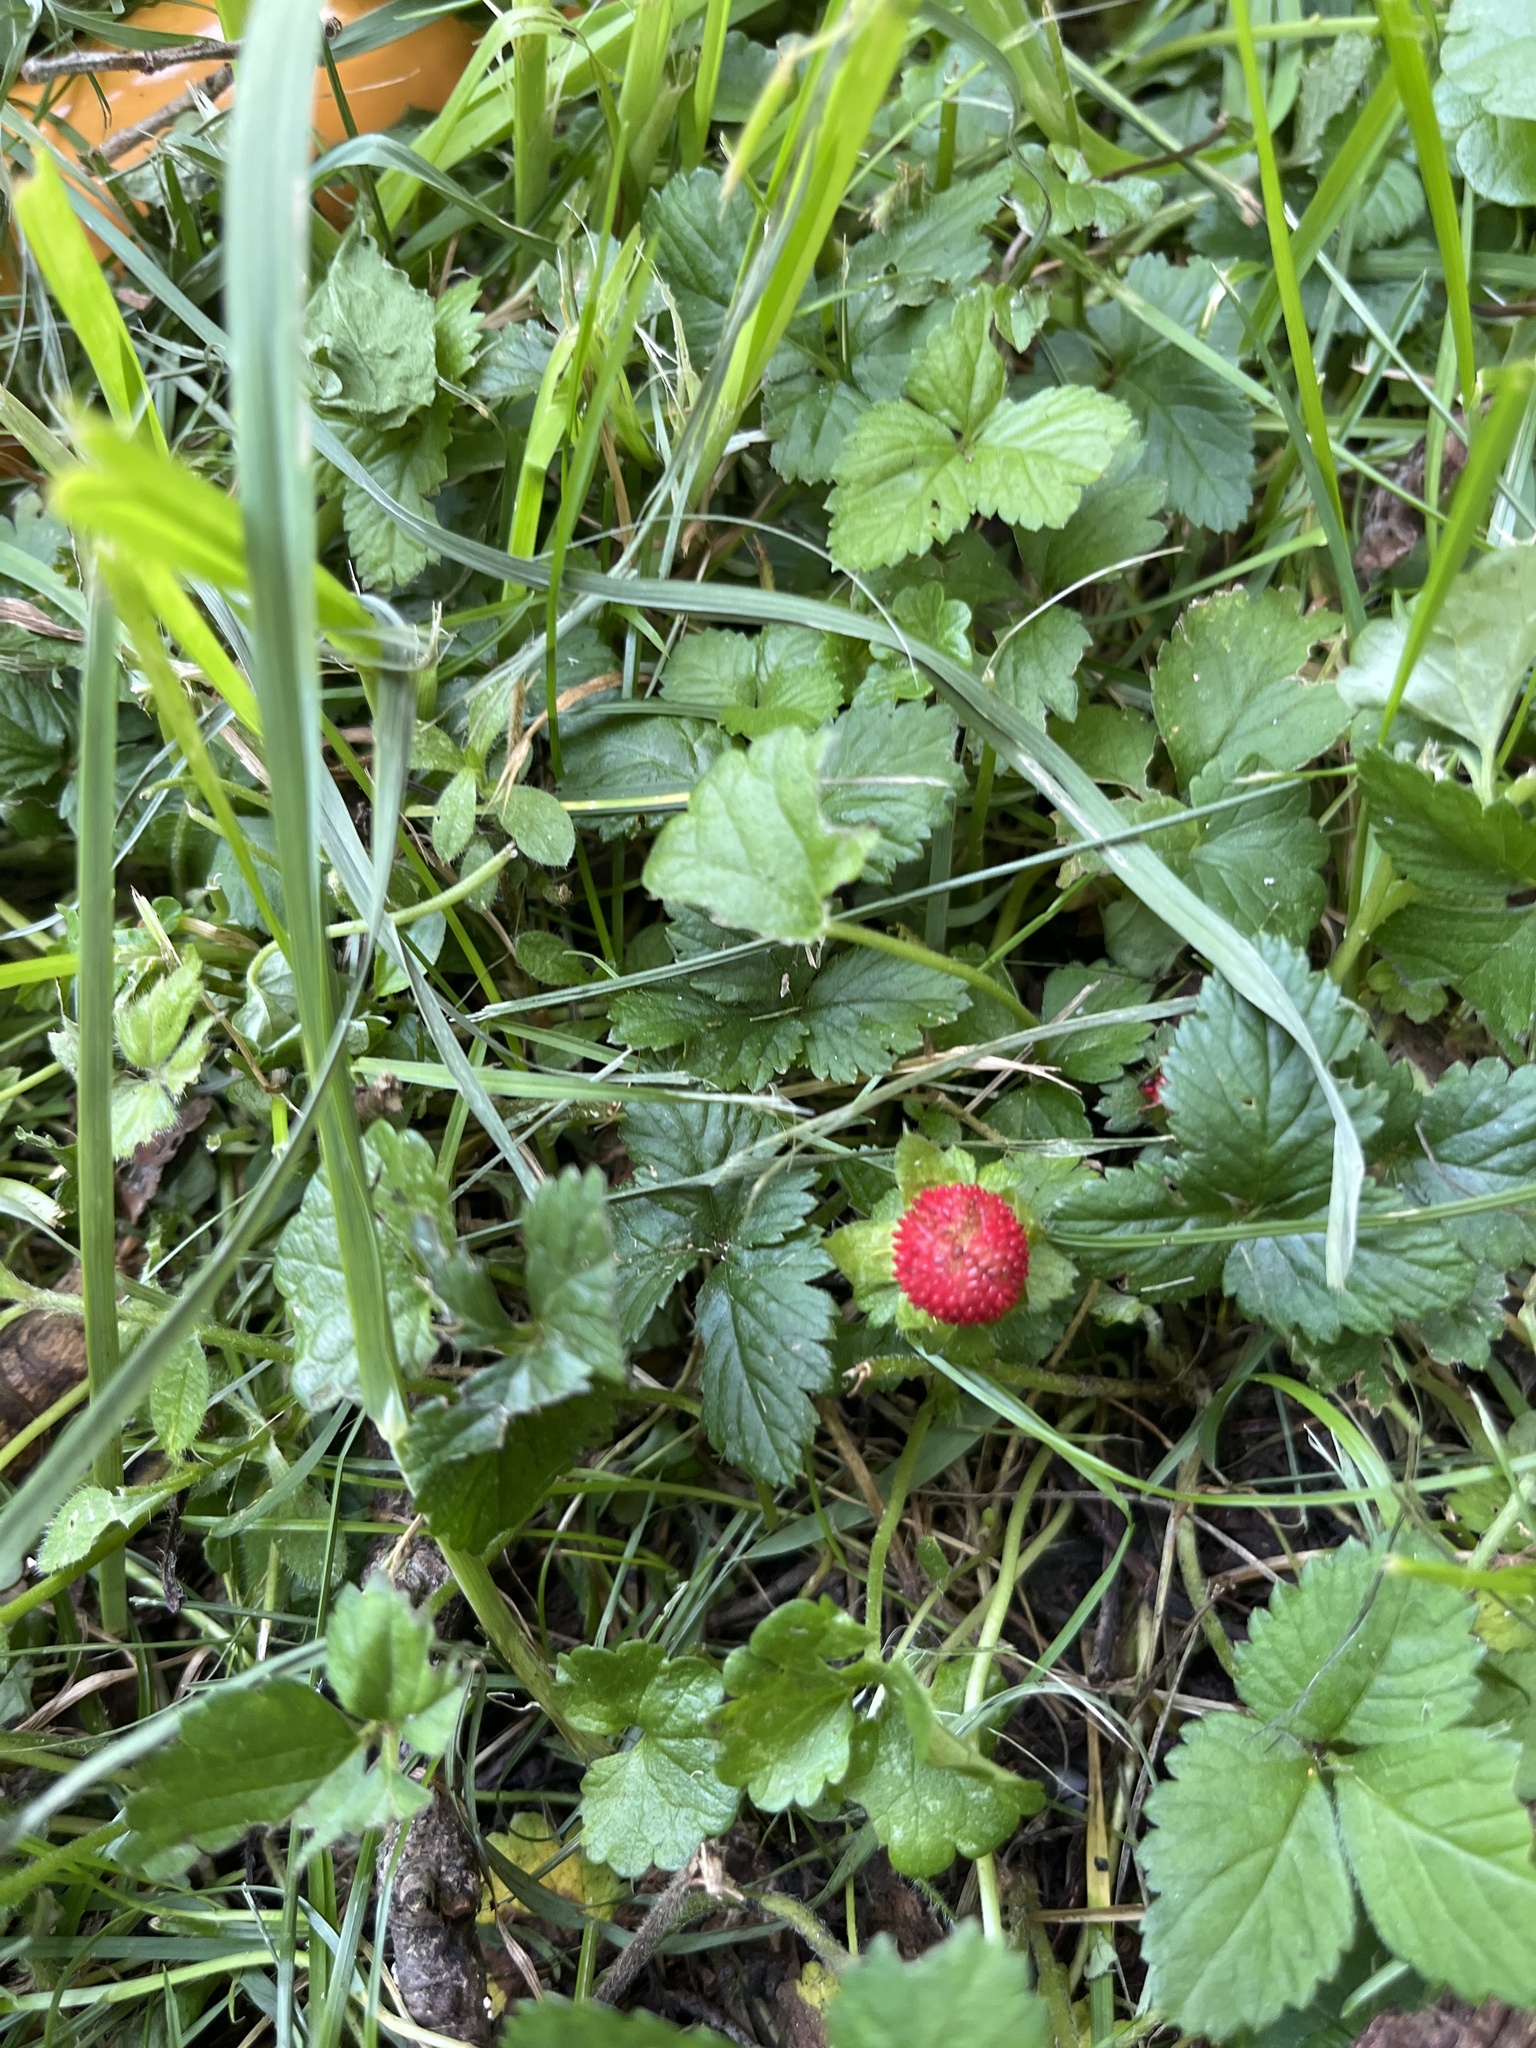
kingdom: Plantae
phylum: Tracheophyta
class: Magnoliopsida
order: Rosales
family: Rosaceae
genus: Potentilla
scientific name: Potentilla indica
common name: Yellow-flowered strawberry
